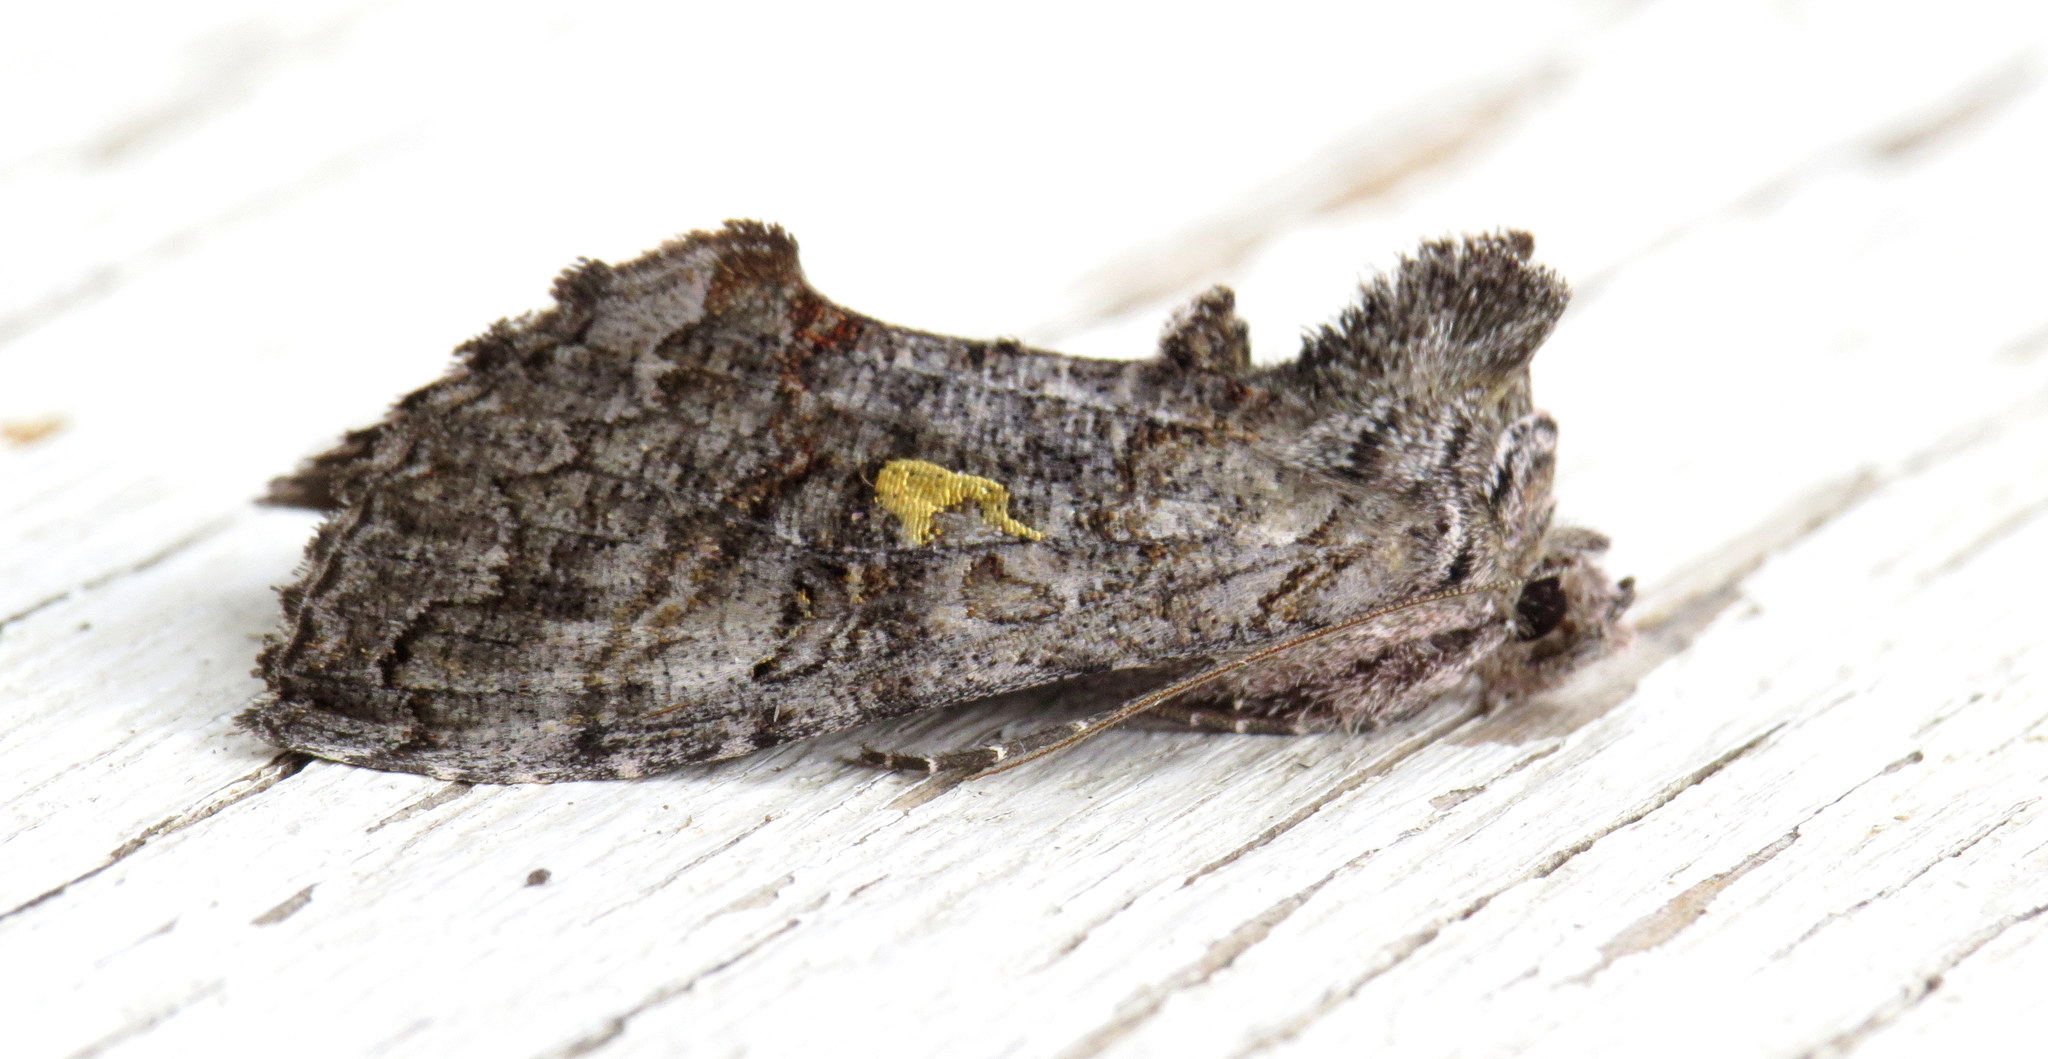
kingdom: Animalia
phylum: Arthropoda
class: Insecta
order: Lepidoptera
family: Noctuidae
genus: Syngrapha
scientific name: Syngrapha viridisigma
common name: Spruce false looper moth
